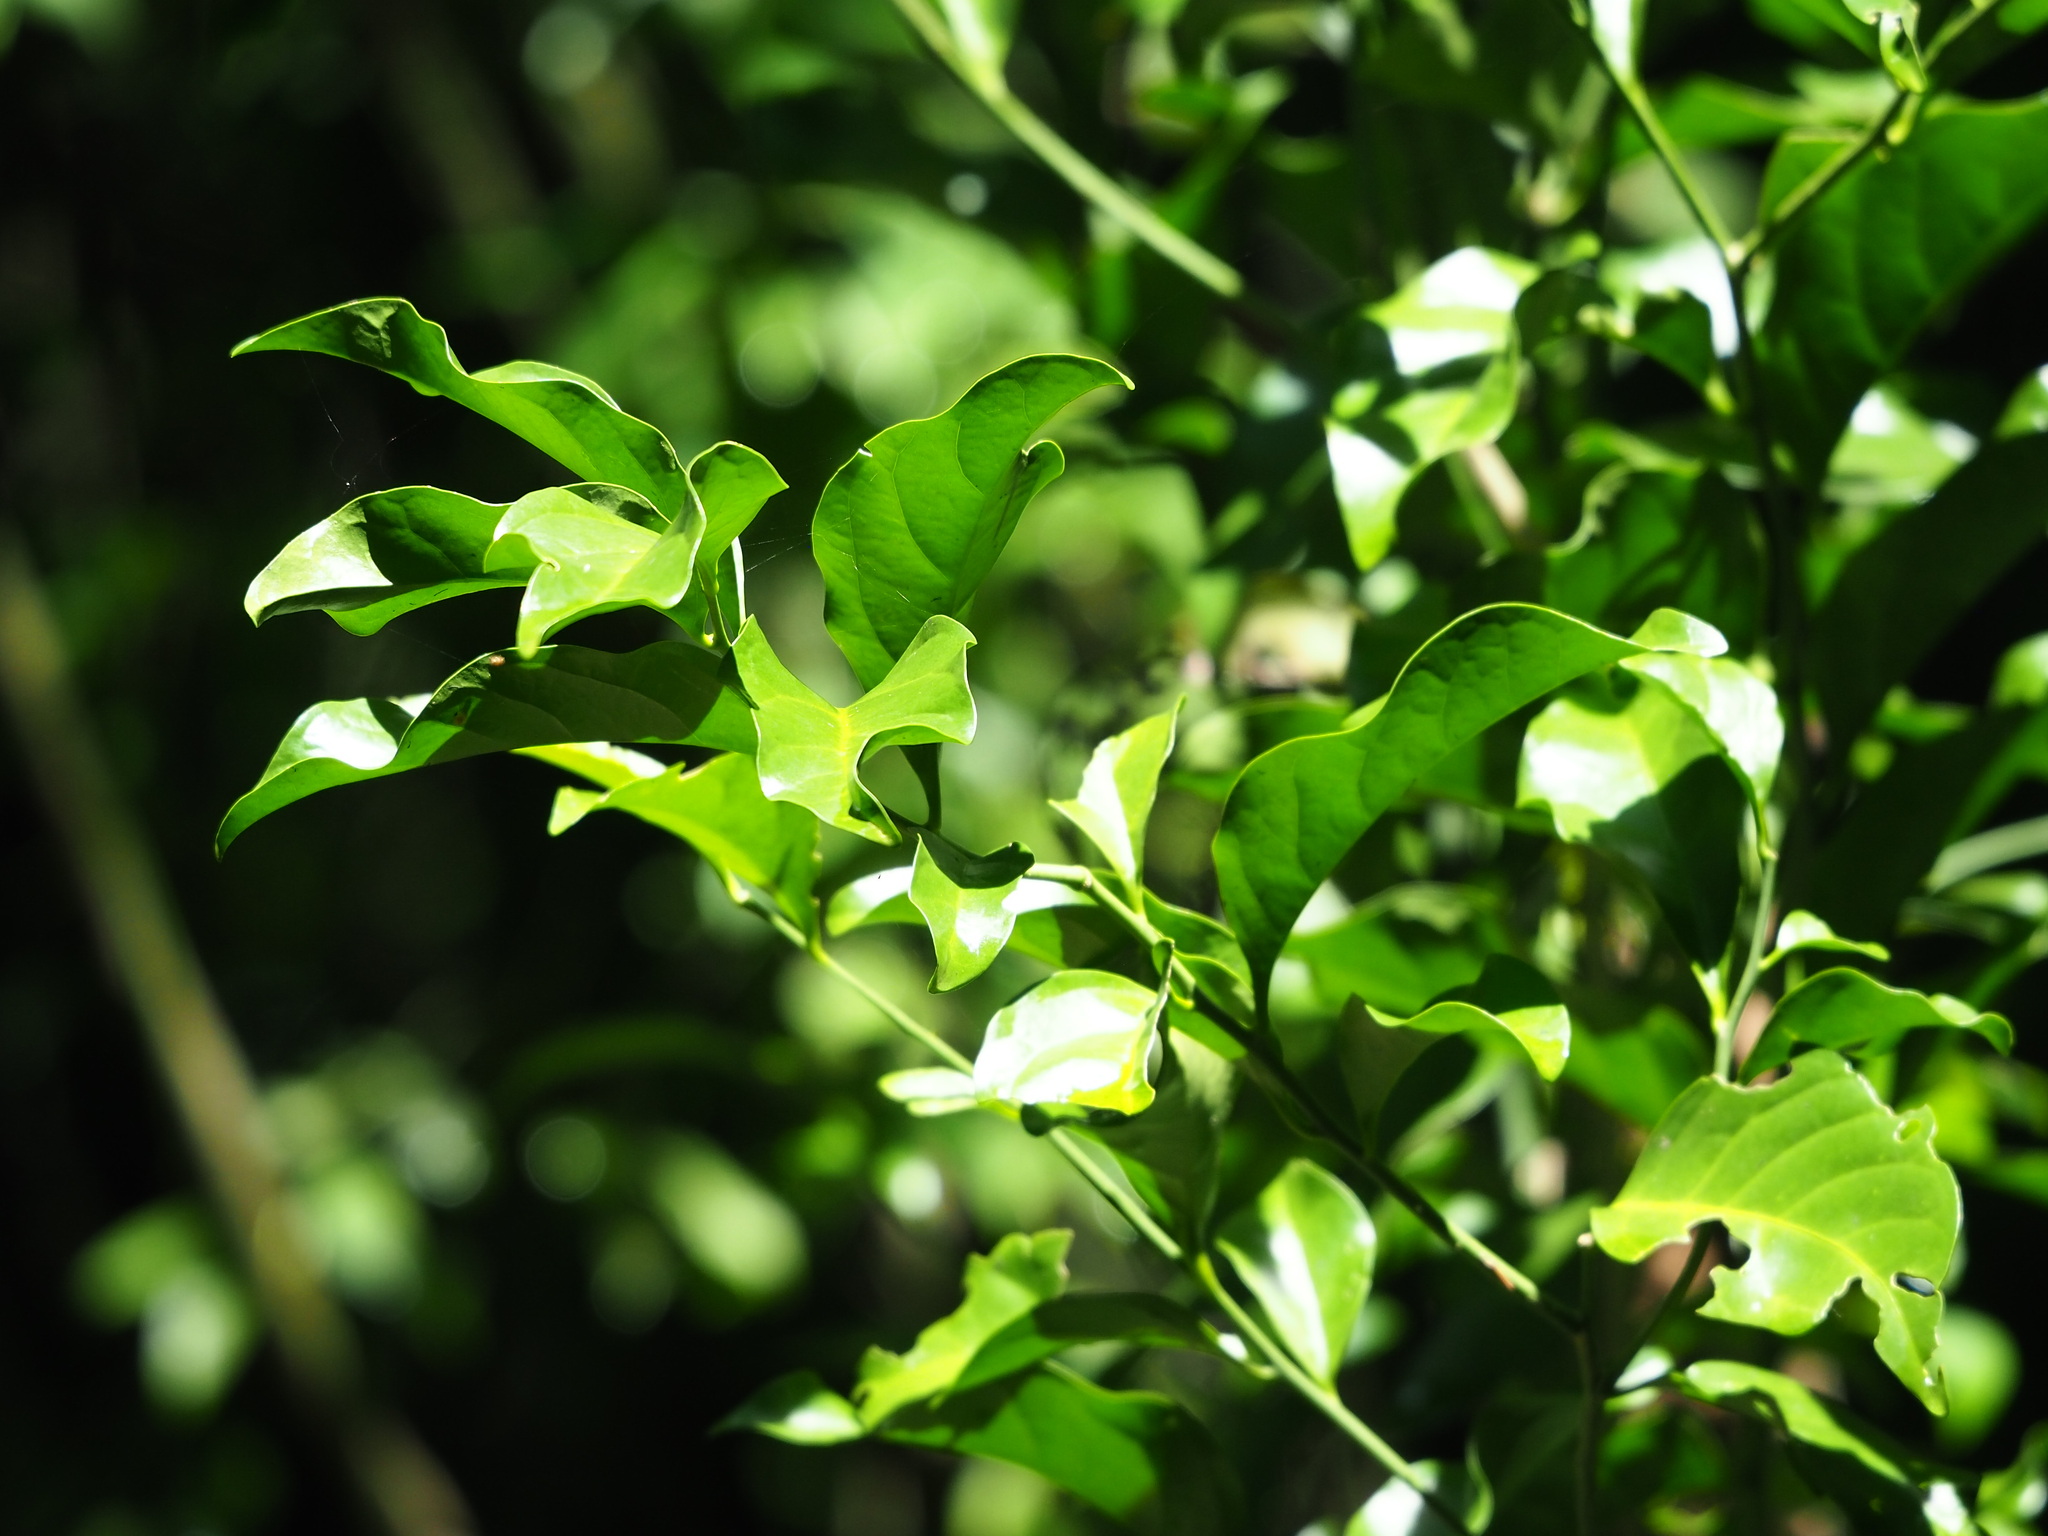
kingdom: Plantae
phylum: Tracheophyta
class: Magnoliopsida
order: Santalales
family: Opiliaceae
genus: Champereia
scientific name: Champereia manillana
